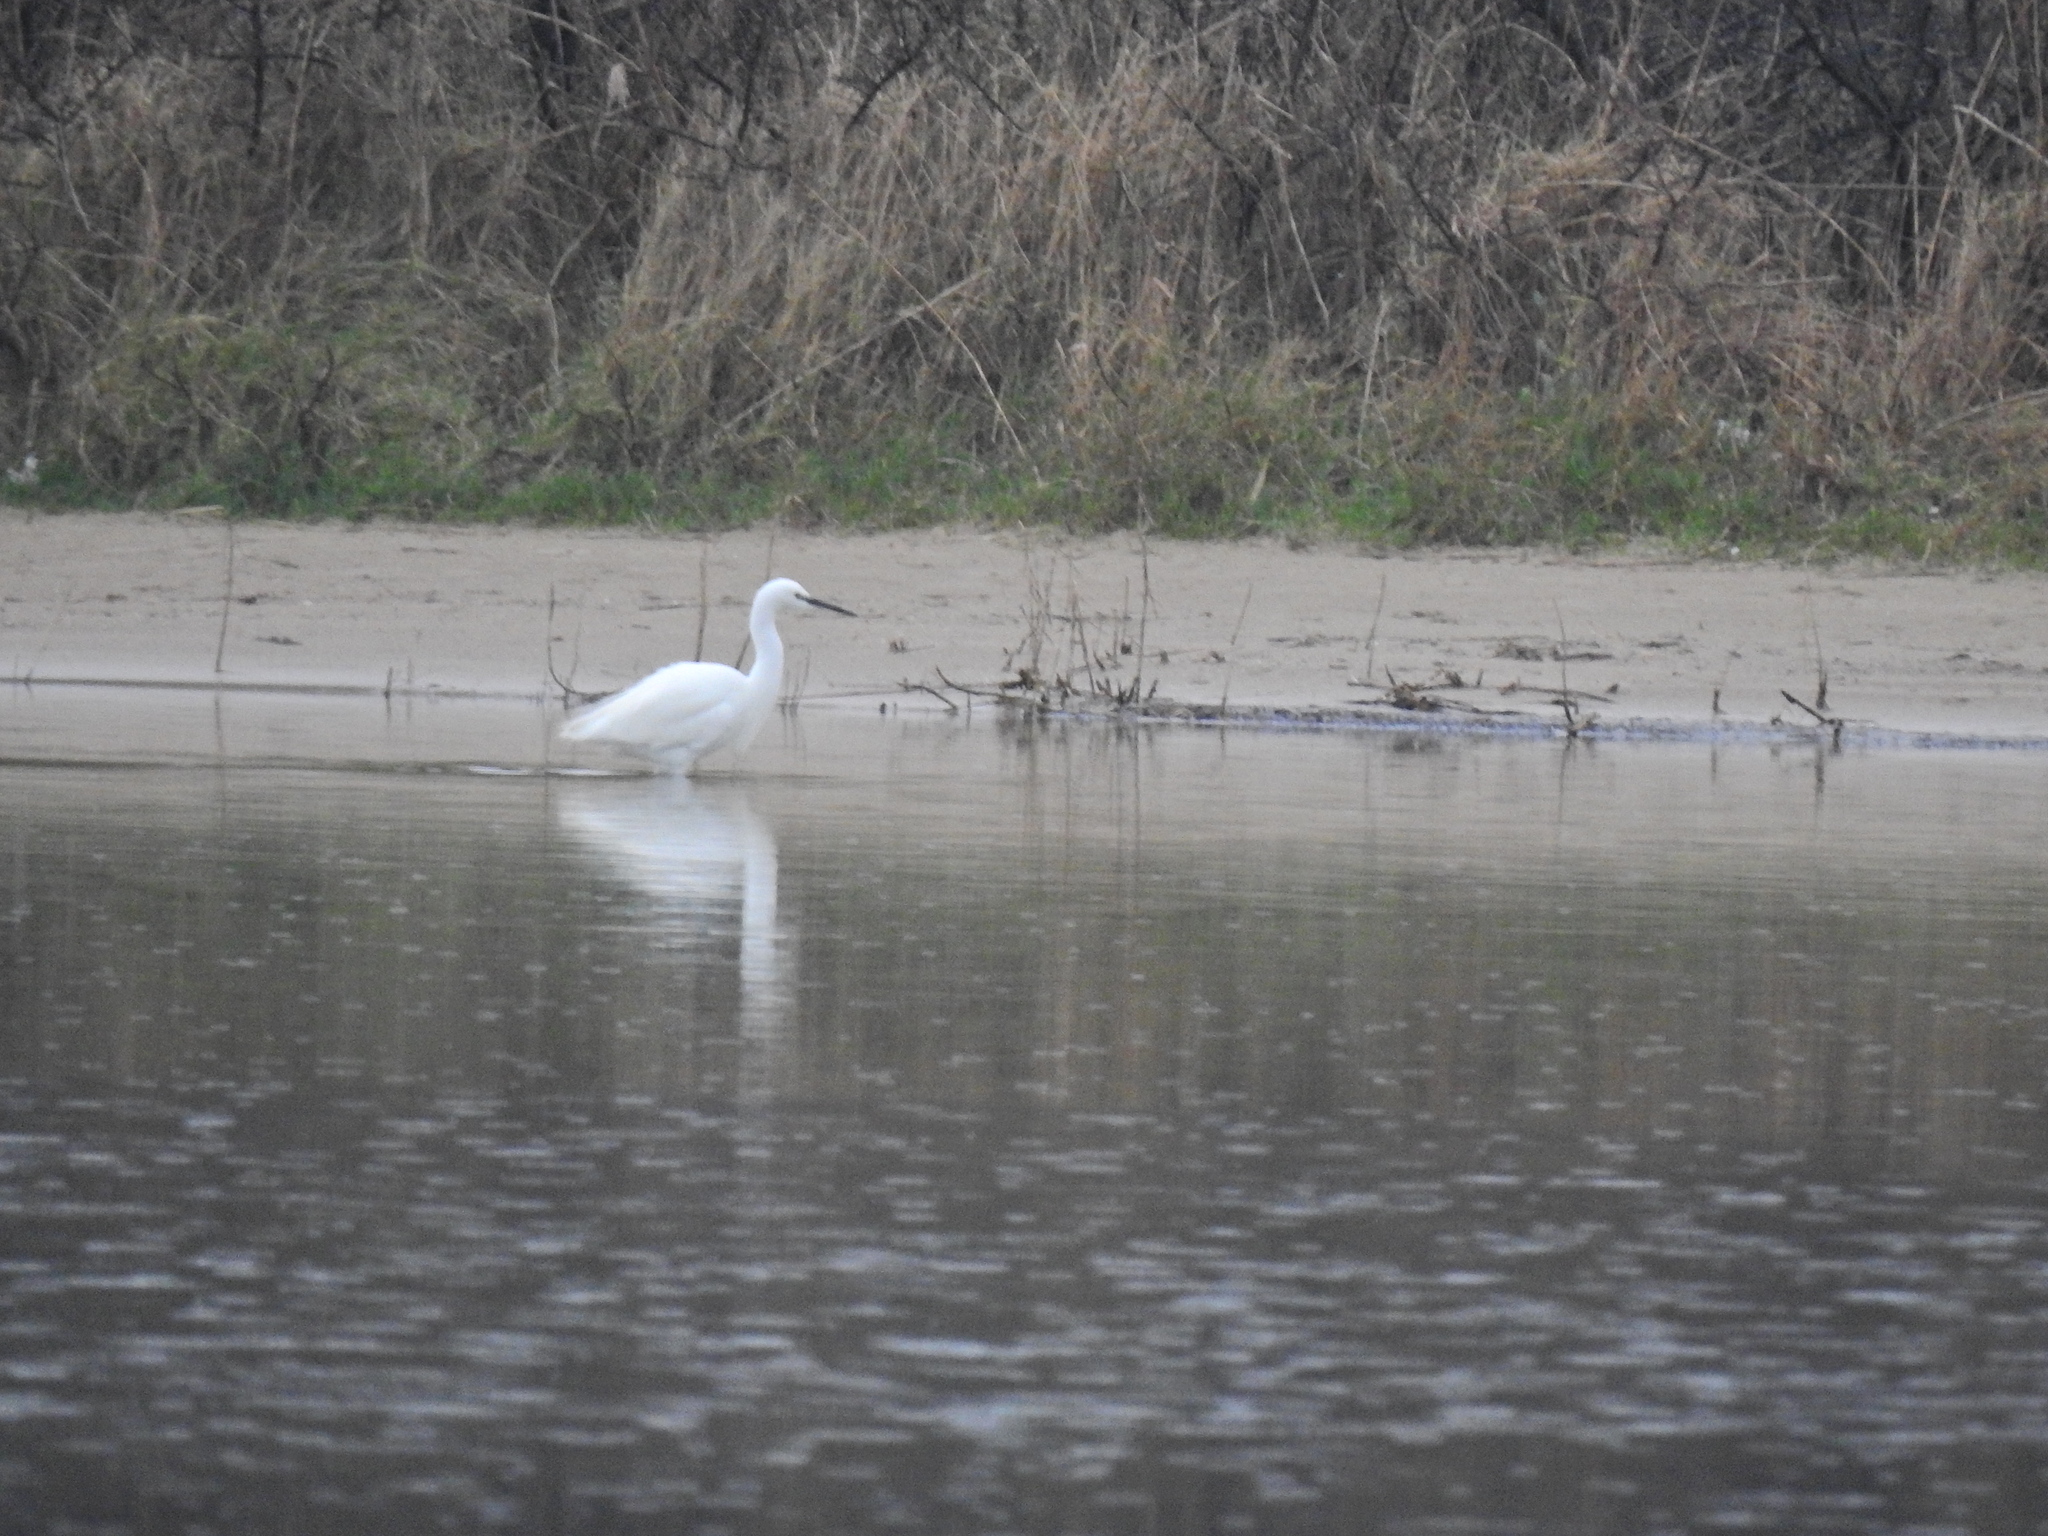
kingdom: Animalia
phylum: Chordata
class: Aves
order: Pelecaniformes
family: Ardeidae
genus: Egretta
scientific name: Egretta garzetta
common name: Little egret
